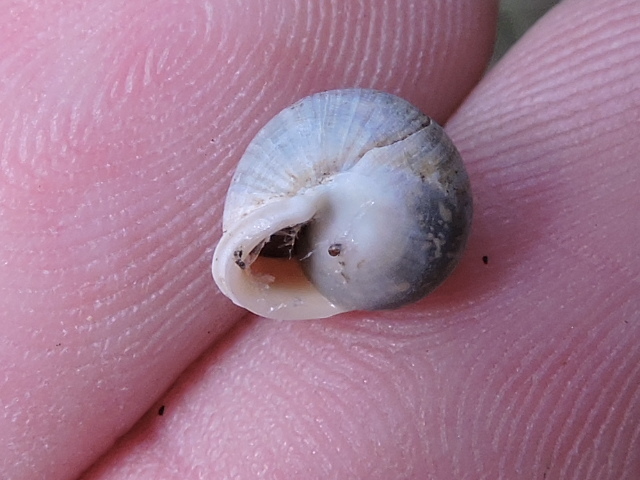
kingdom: Animalia
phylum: Mollusca
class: Gastropoda
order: Cycloneritida
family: Helicinidae
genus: Helicina
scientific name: Helicina orbiculata
